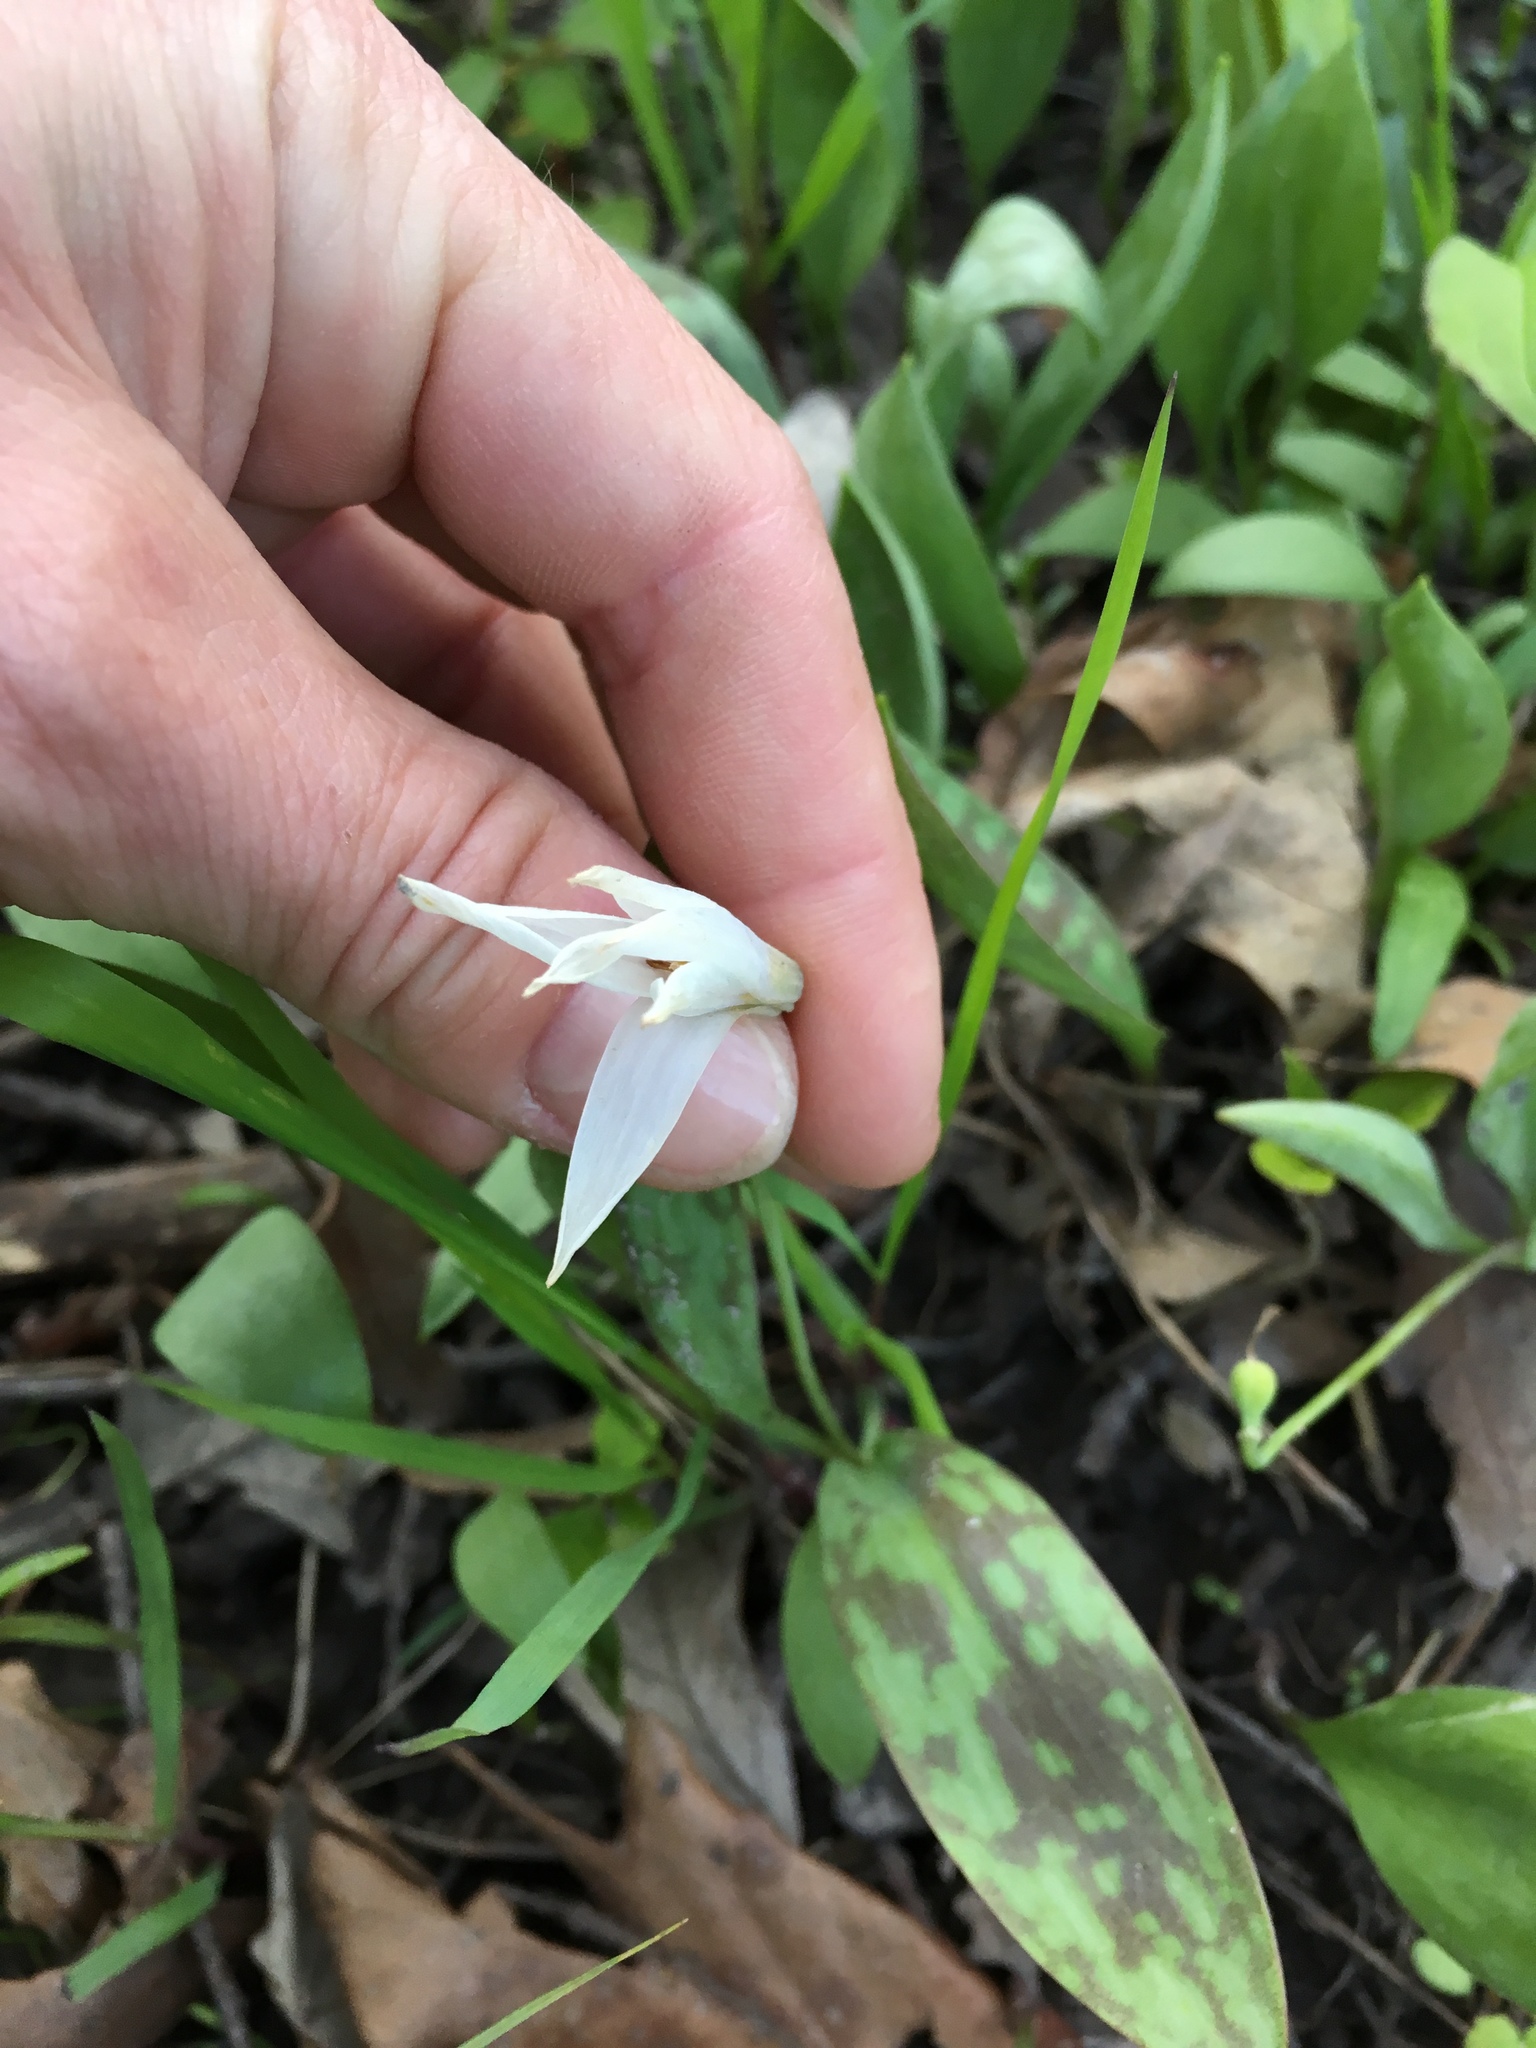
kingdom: Plantae
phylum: Tracheophyta
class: Liliopsida
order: Liliales
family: Liliaceae
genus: Erythronium
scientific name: Erythronium albidum
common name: White trout-lily
